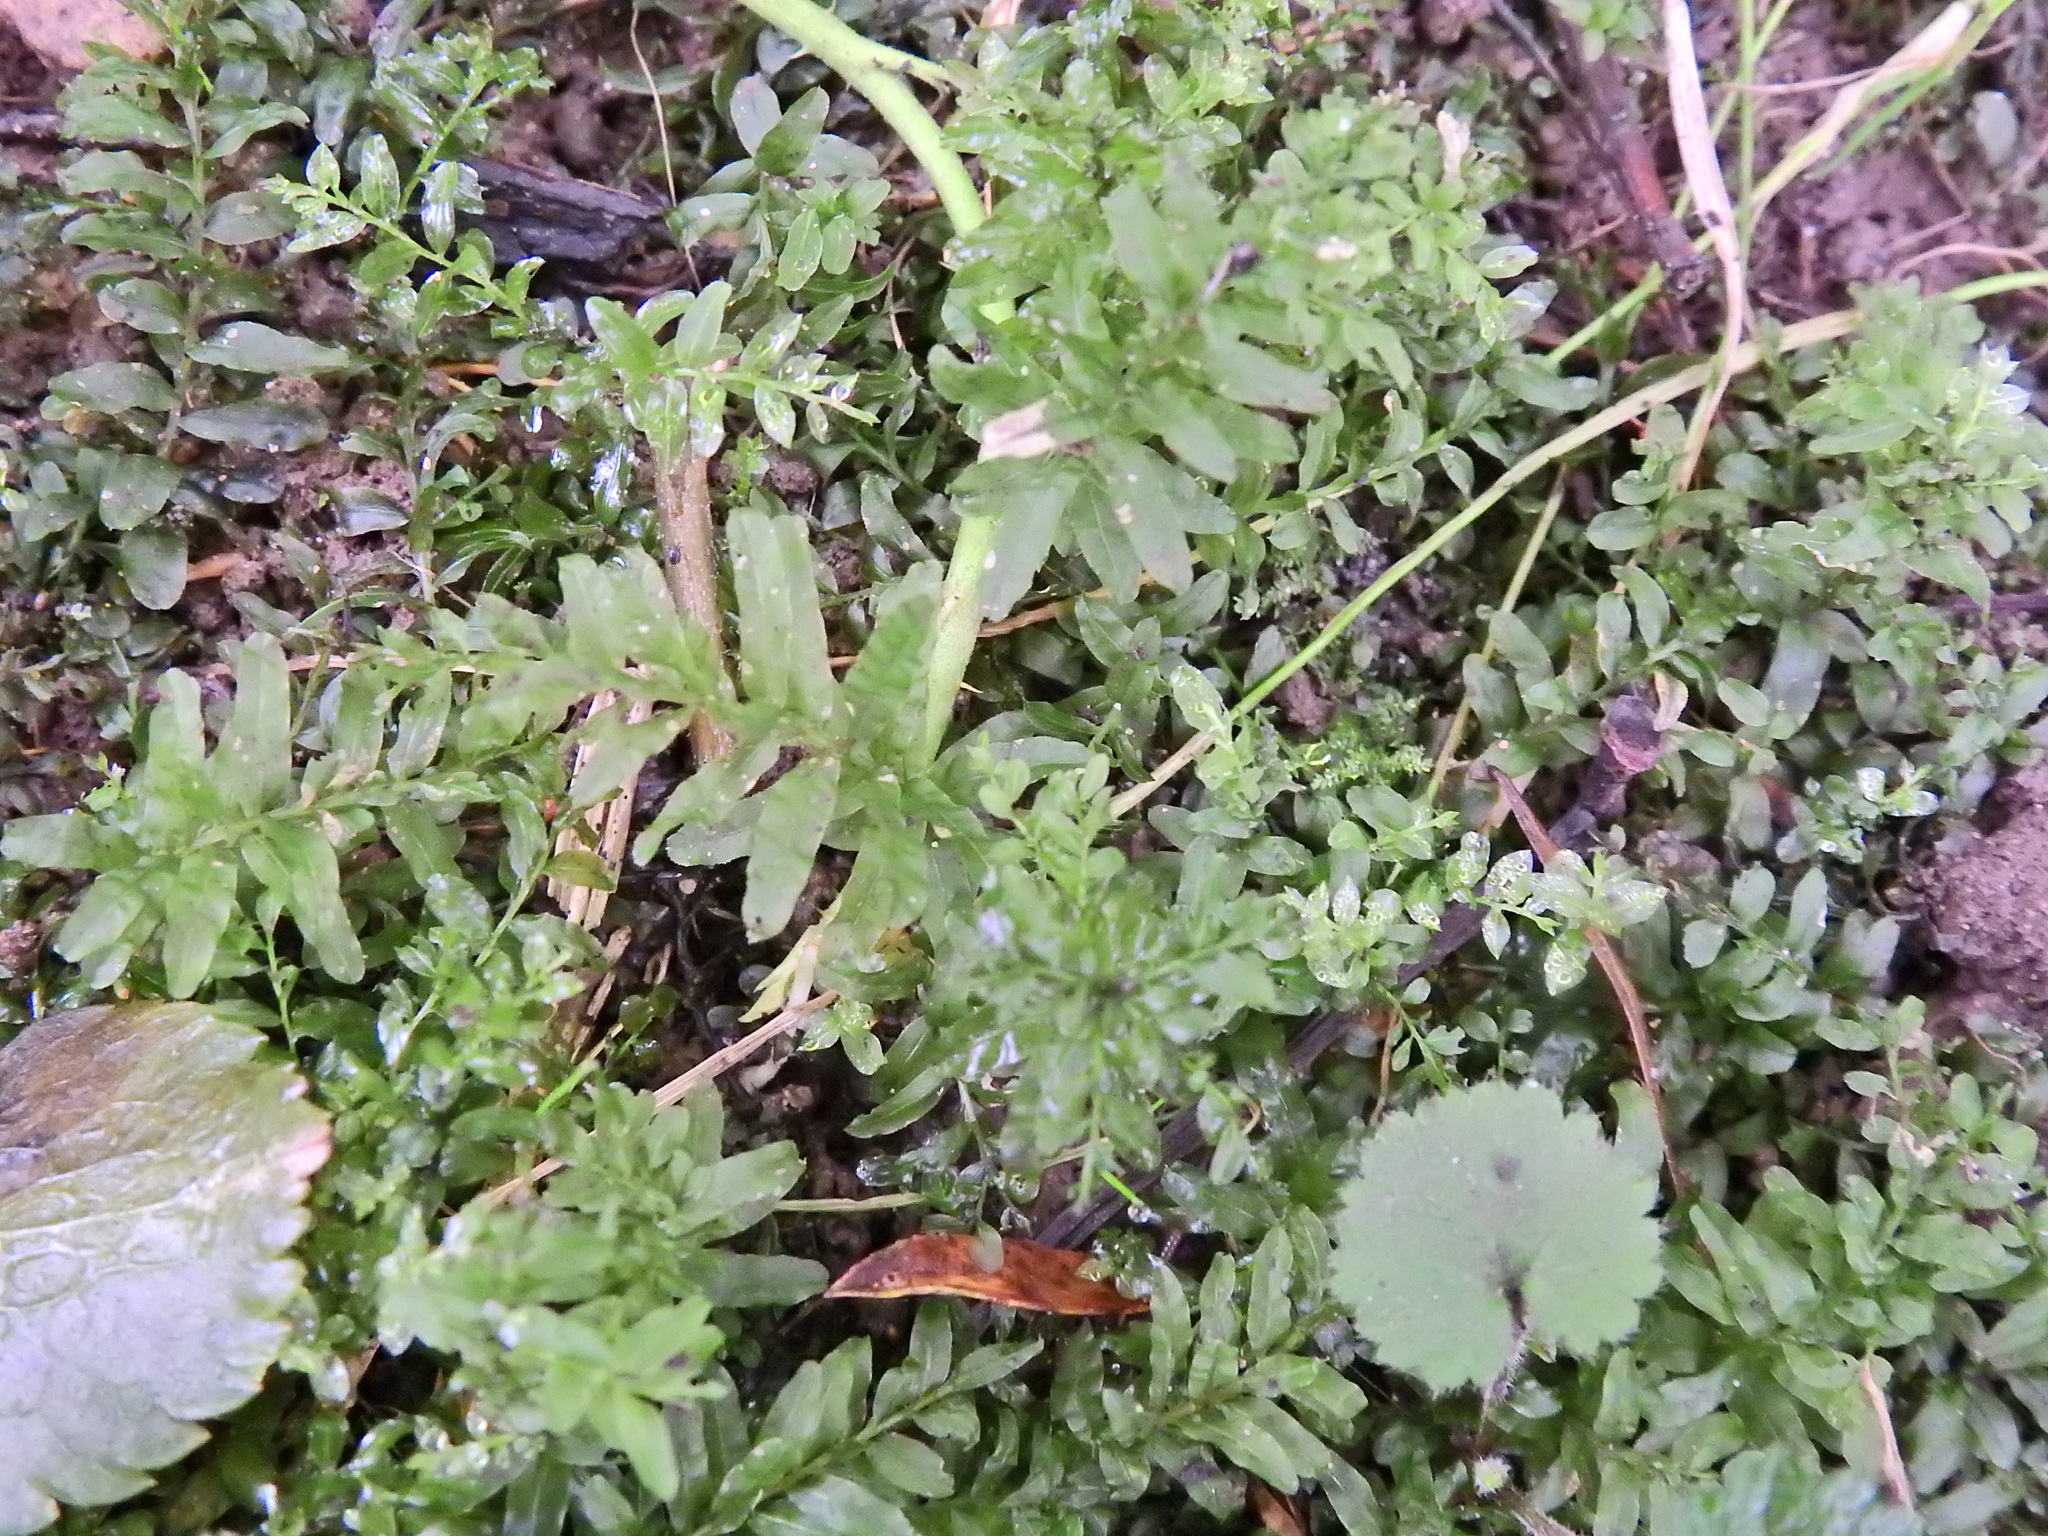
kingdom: Plantae
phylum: Bryophyta
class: Bryopsida
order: Bryales
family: Mniaceae
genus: Plagiomnium
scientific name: Plagiomnium undulatum
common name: Hart's-tongue thyme-moss
